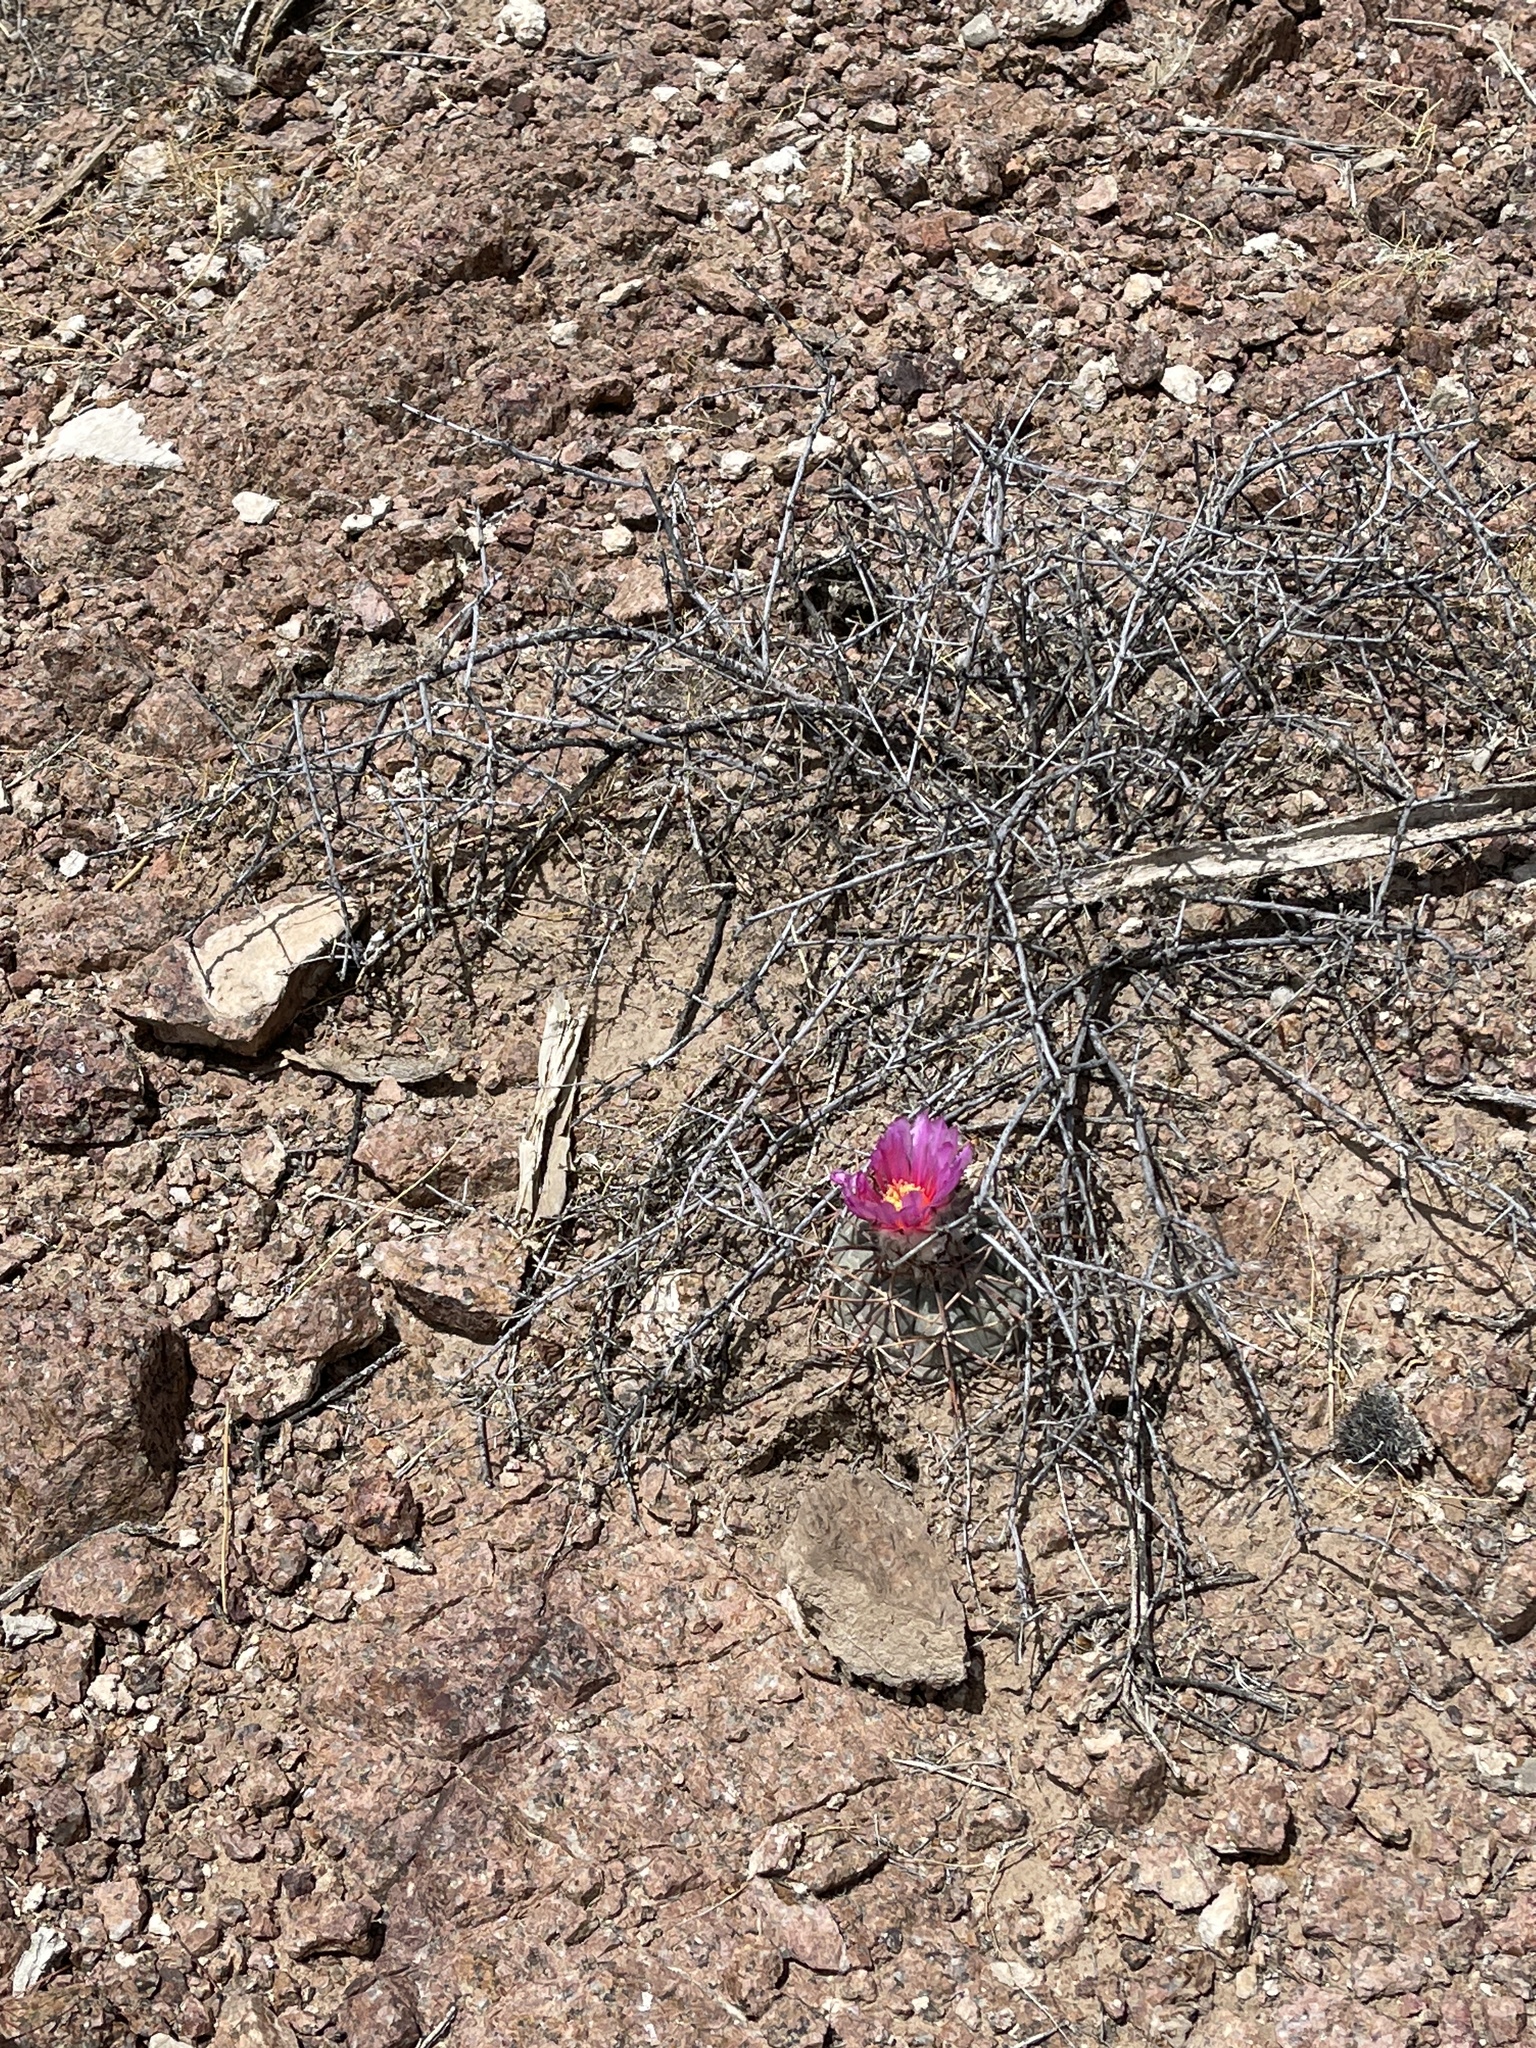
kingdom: Plantae
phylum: Tracheophyta
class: Magnoliopsida
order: Caryophyllales
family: Cactaceae
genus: Echinocactus
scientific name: Echinocactus horizonthalonius
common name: Devilshead
